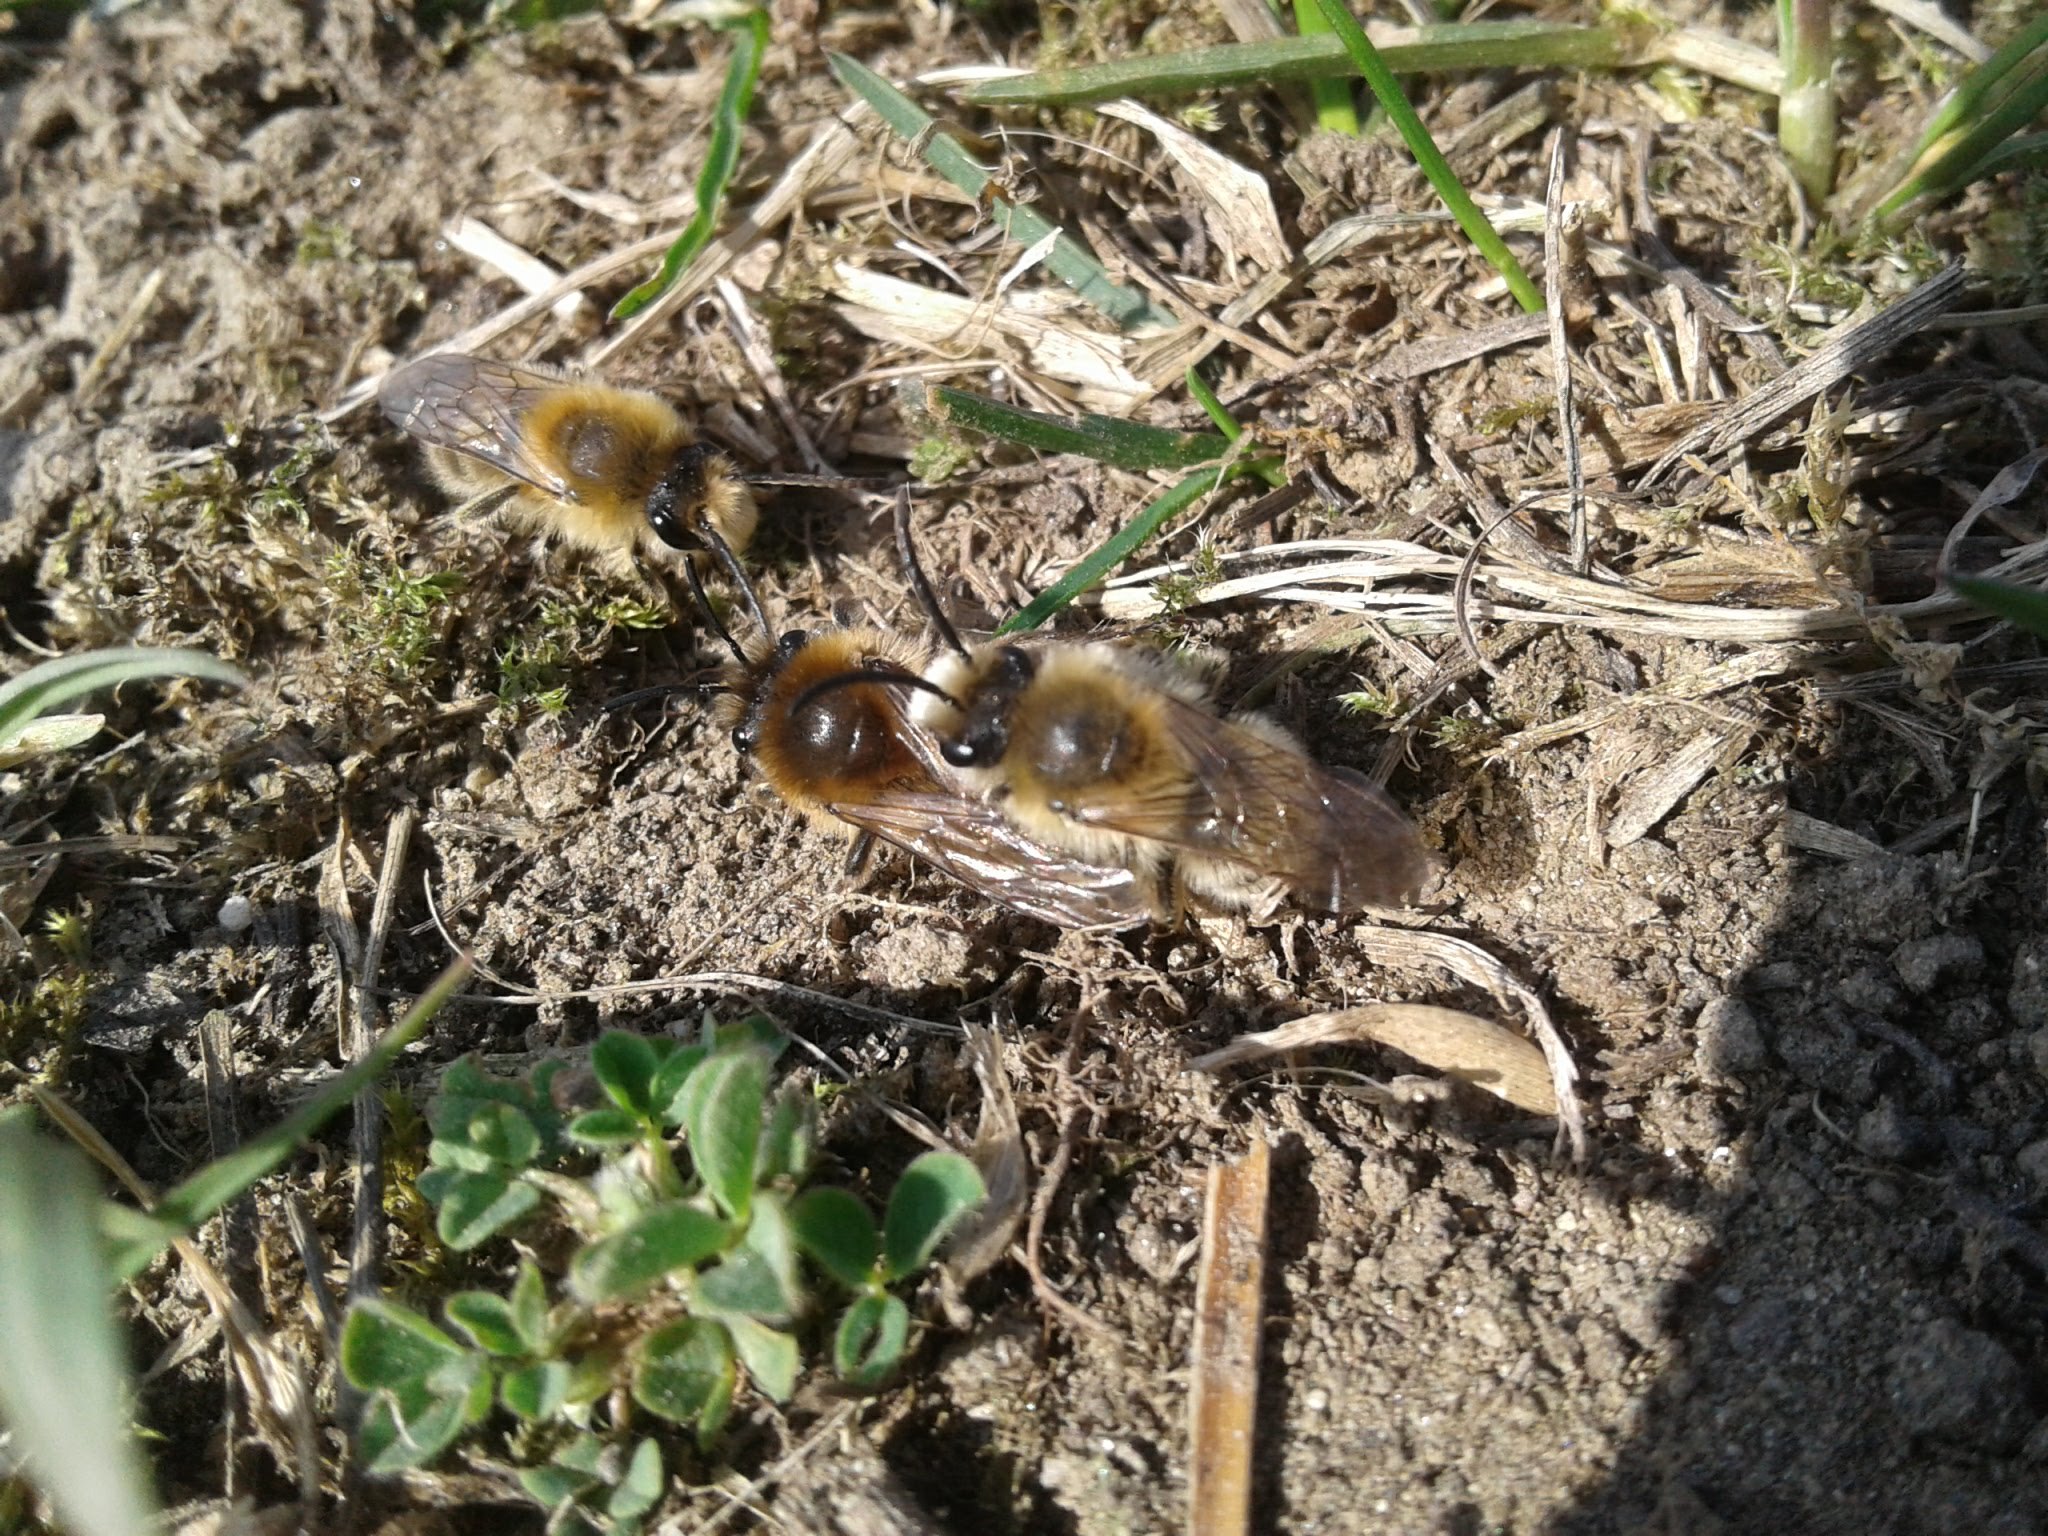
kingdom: Animalia
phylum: Arthropoda
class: Insecta
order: Hymenoptera
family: Colletidae
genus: Colletes
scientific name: Colletes cunicularius
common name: Early colletes
